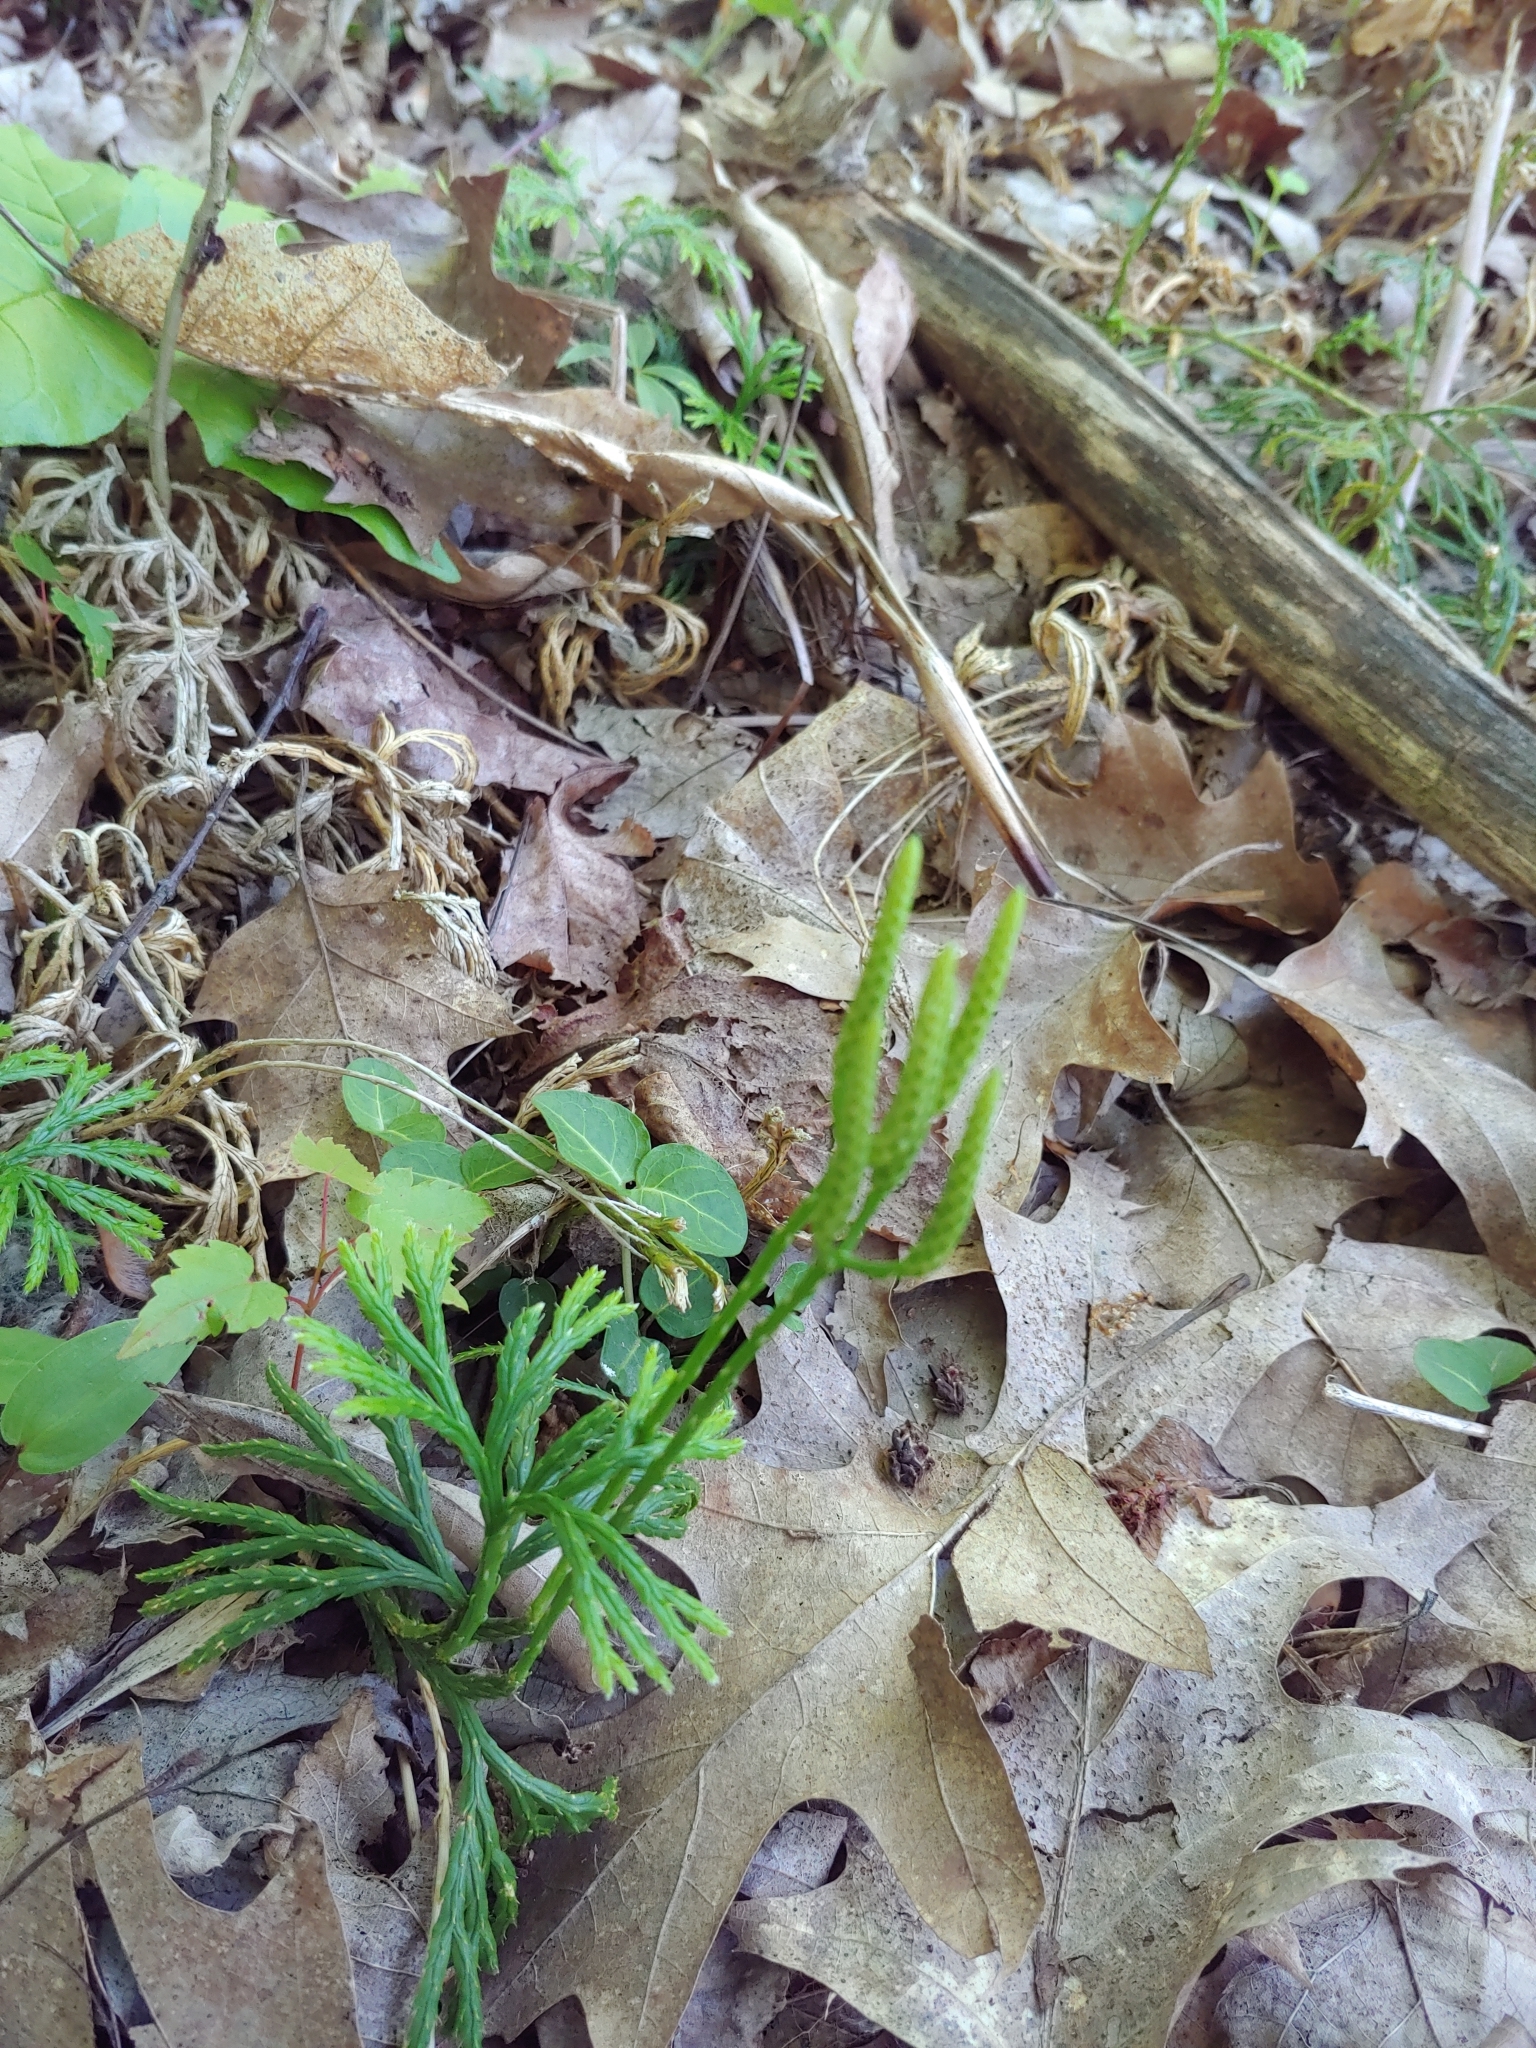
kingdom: Plantae
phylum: Tracheophyta
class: Lycopodiopsida
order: Lycopodiales
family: Lycopodiaceae
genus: Diphasiastrum
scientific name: Diphasiastrum digitatum
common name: Southern running-pine
